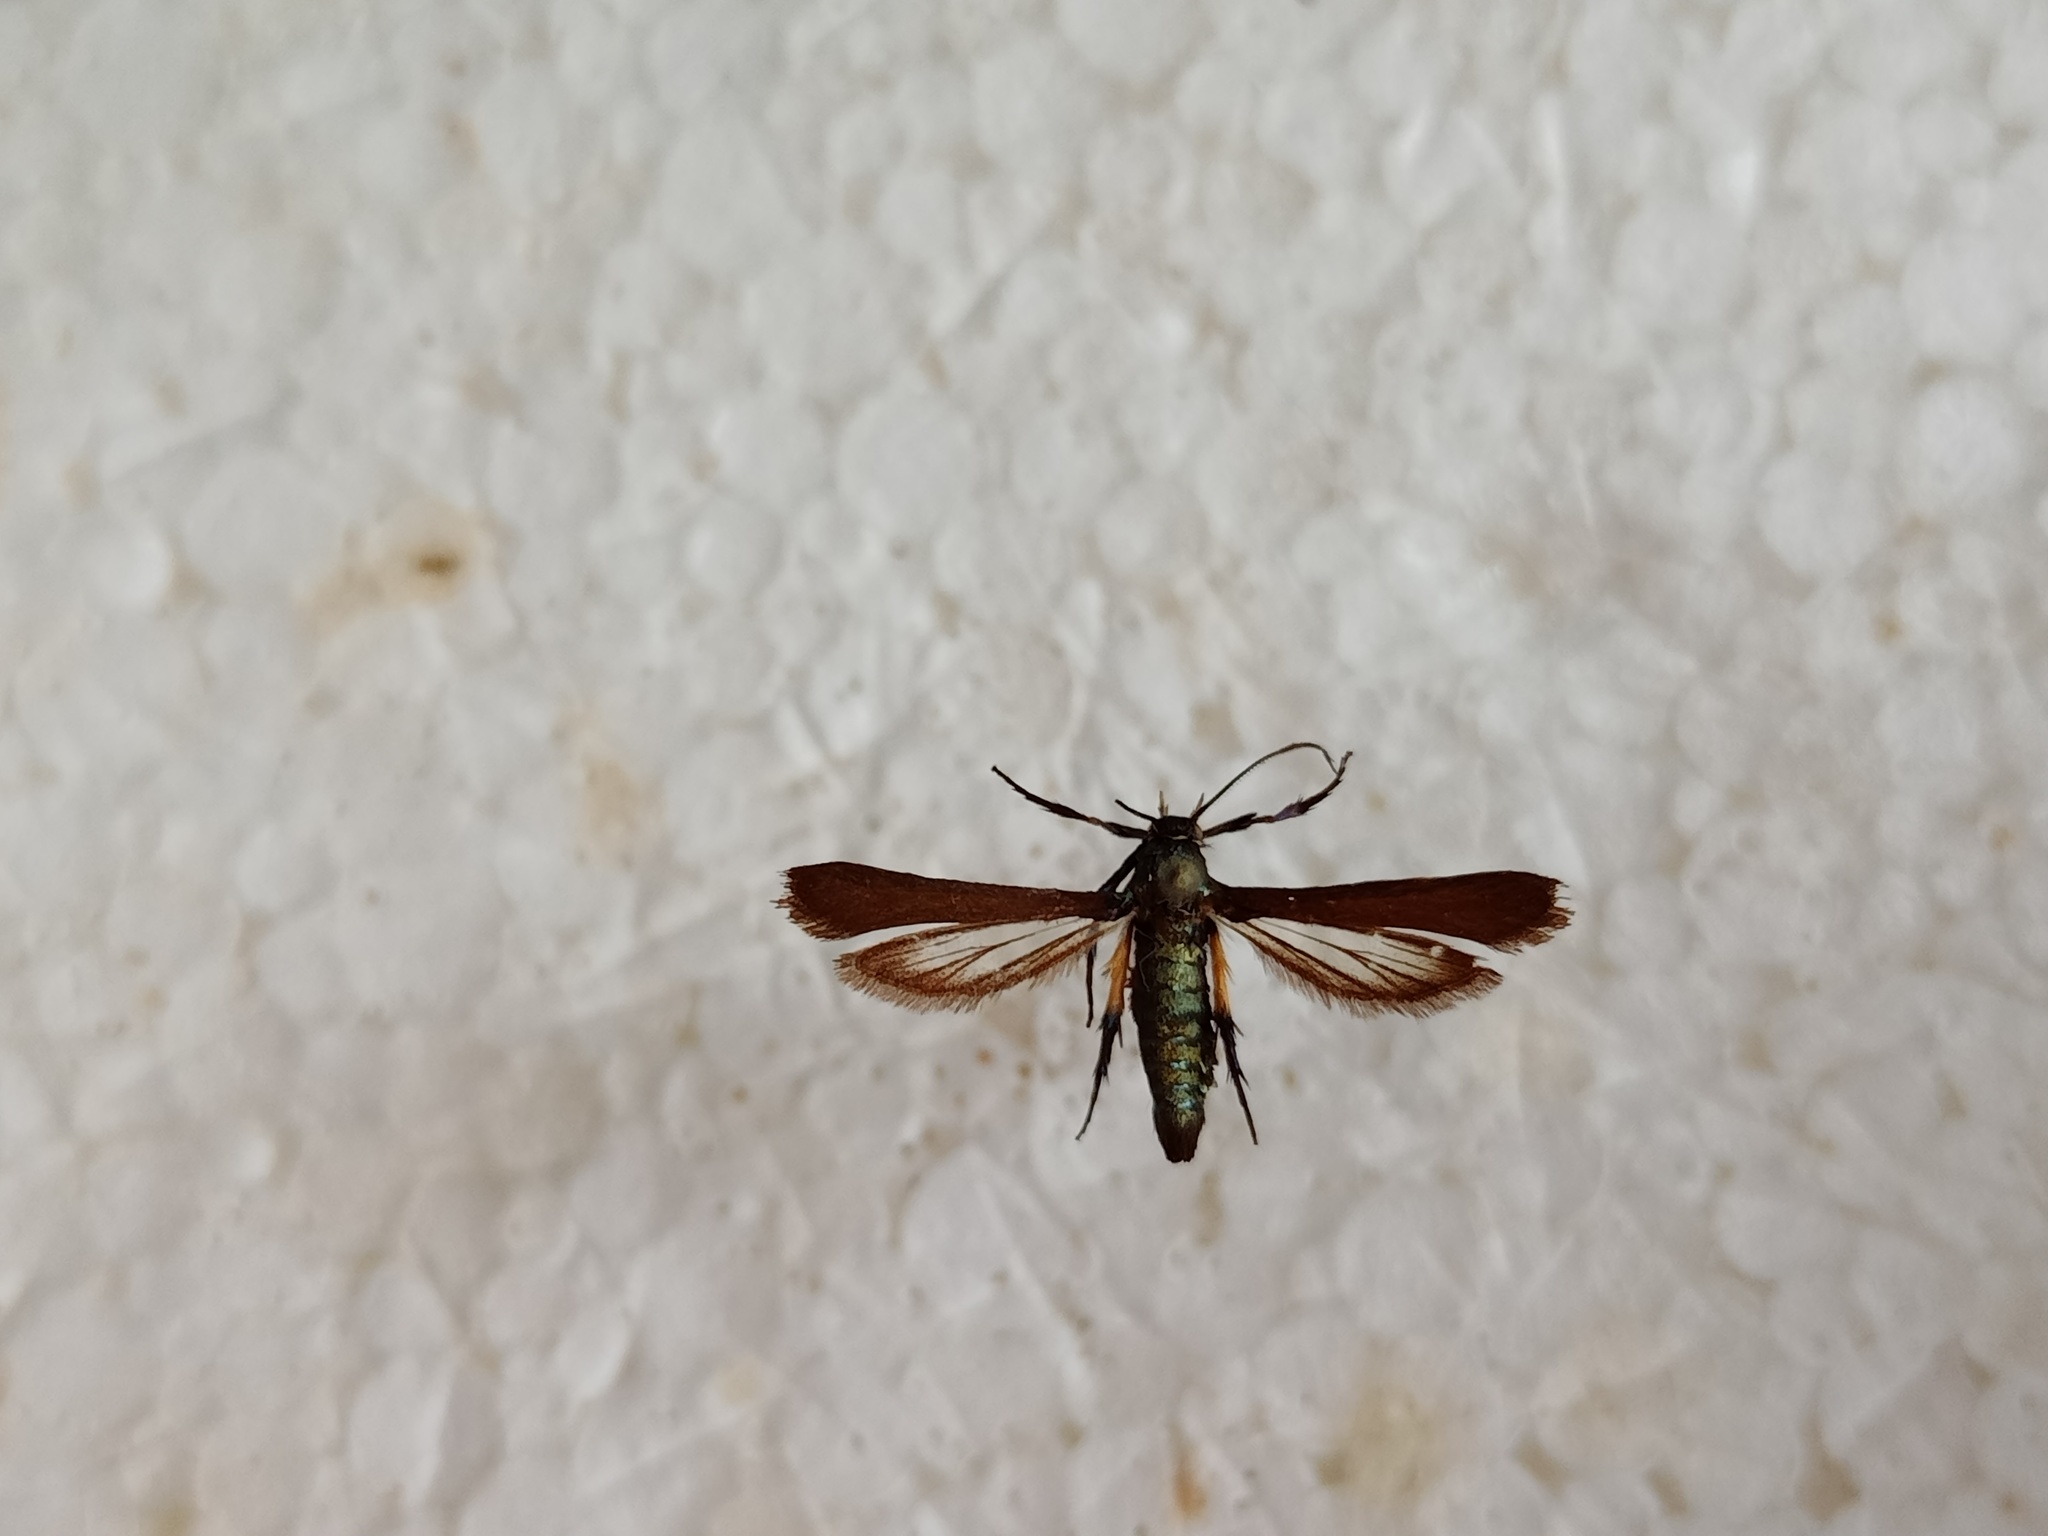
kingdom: Animalia
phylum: Arthropoda
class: Insecta
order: Lepidoptera
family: Sesiidae
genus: Negotinthia
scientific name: Negotinthia myrmosaeformis
